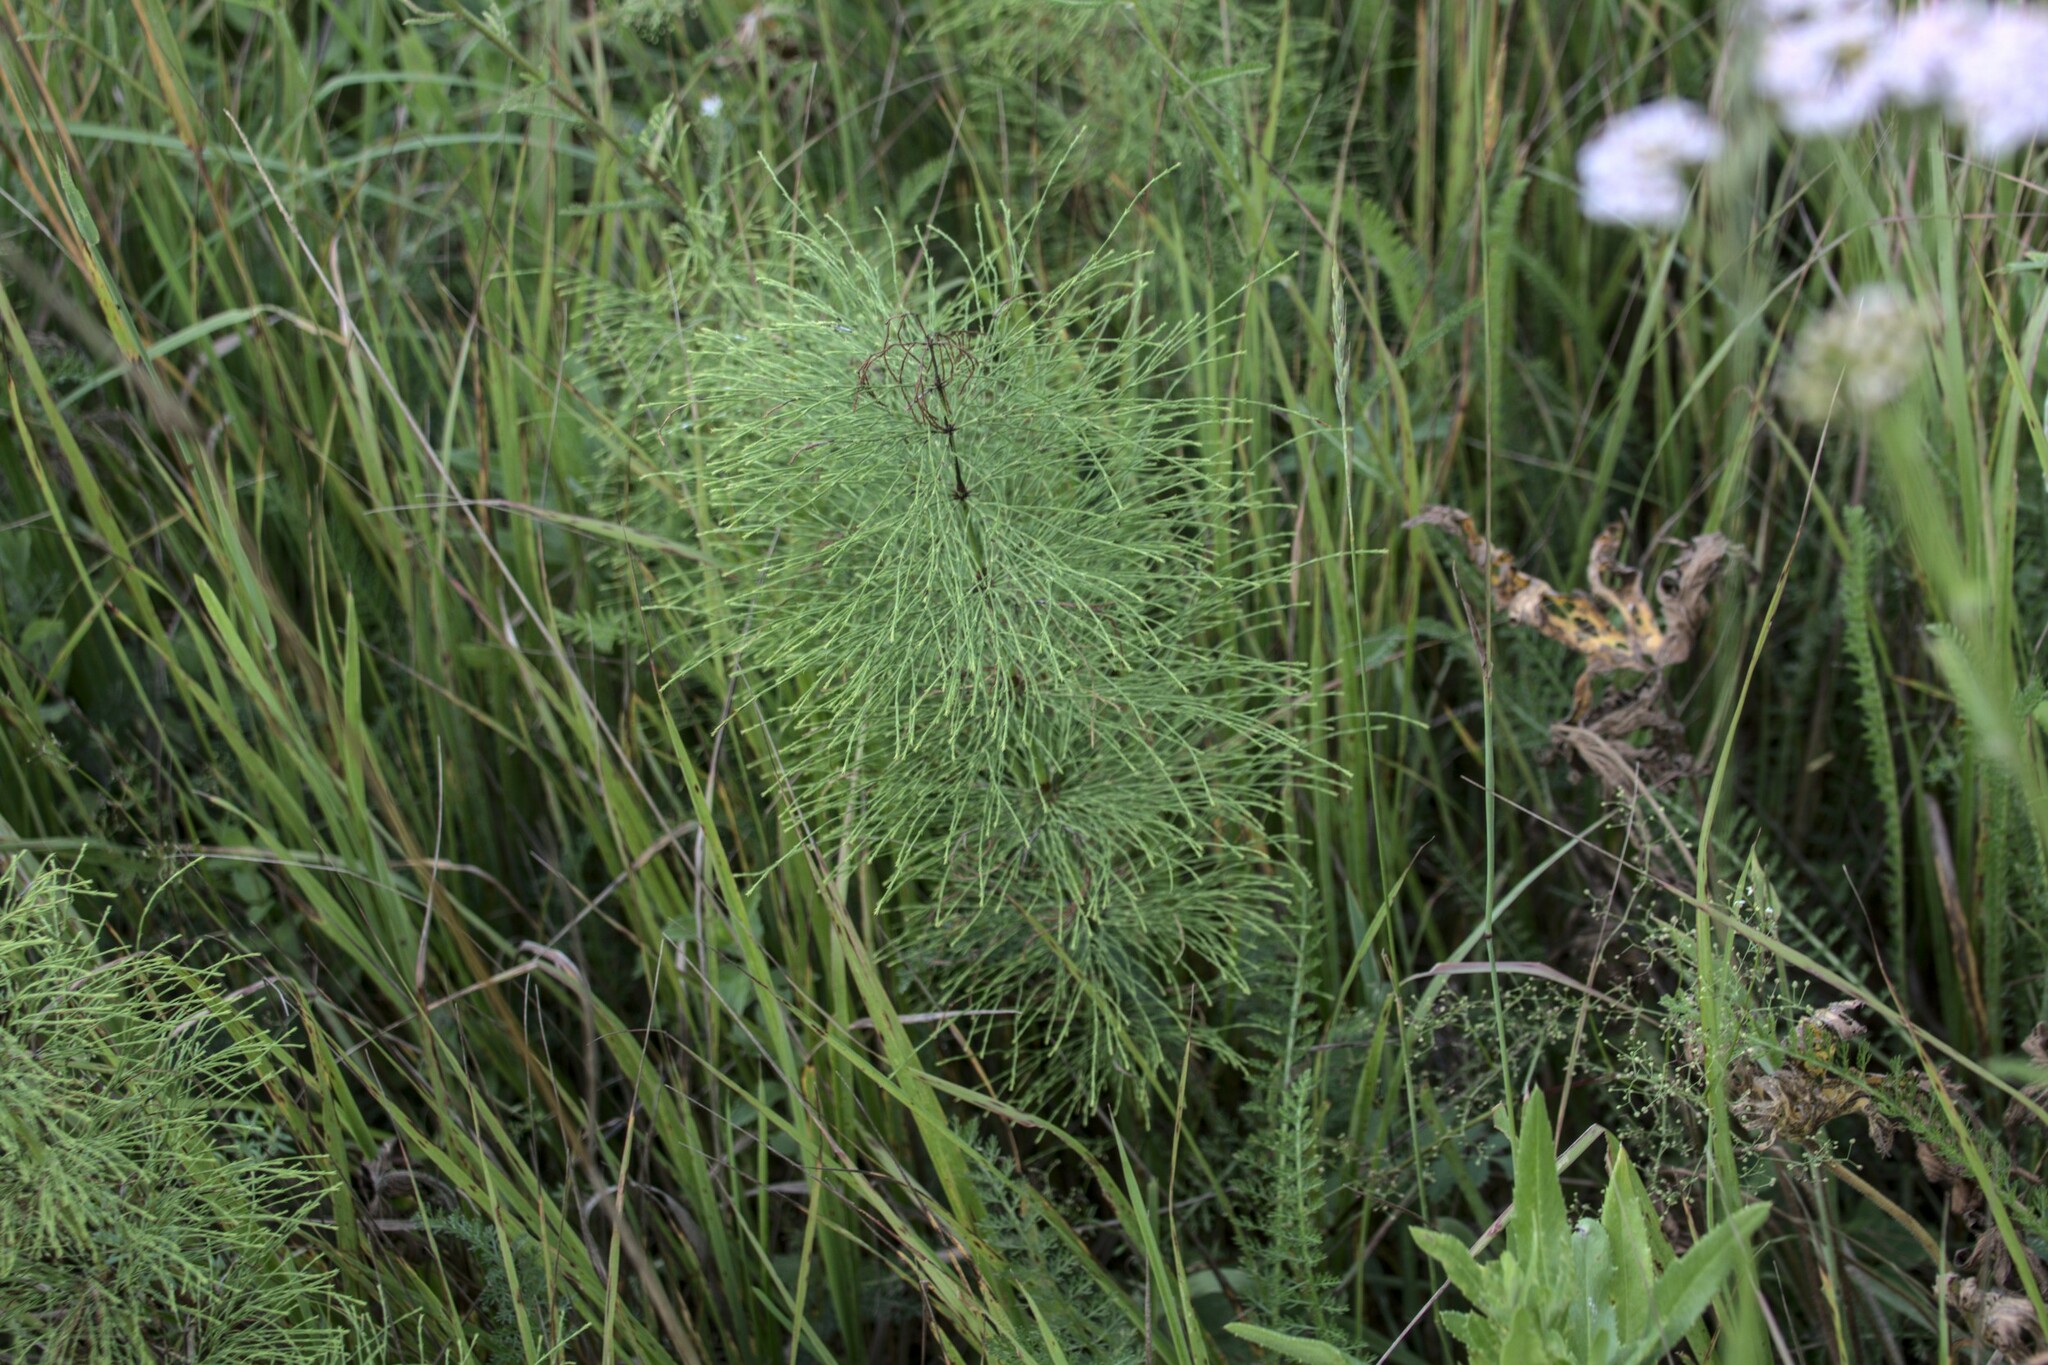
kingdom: Plantae
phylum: Tracheophyta
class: Polypodiopsida
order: Equisetales
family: Equisetaceae
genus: Equisetum
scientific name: Equisetum sylvaticum
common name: Wood horsetail
